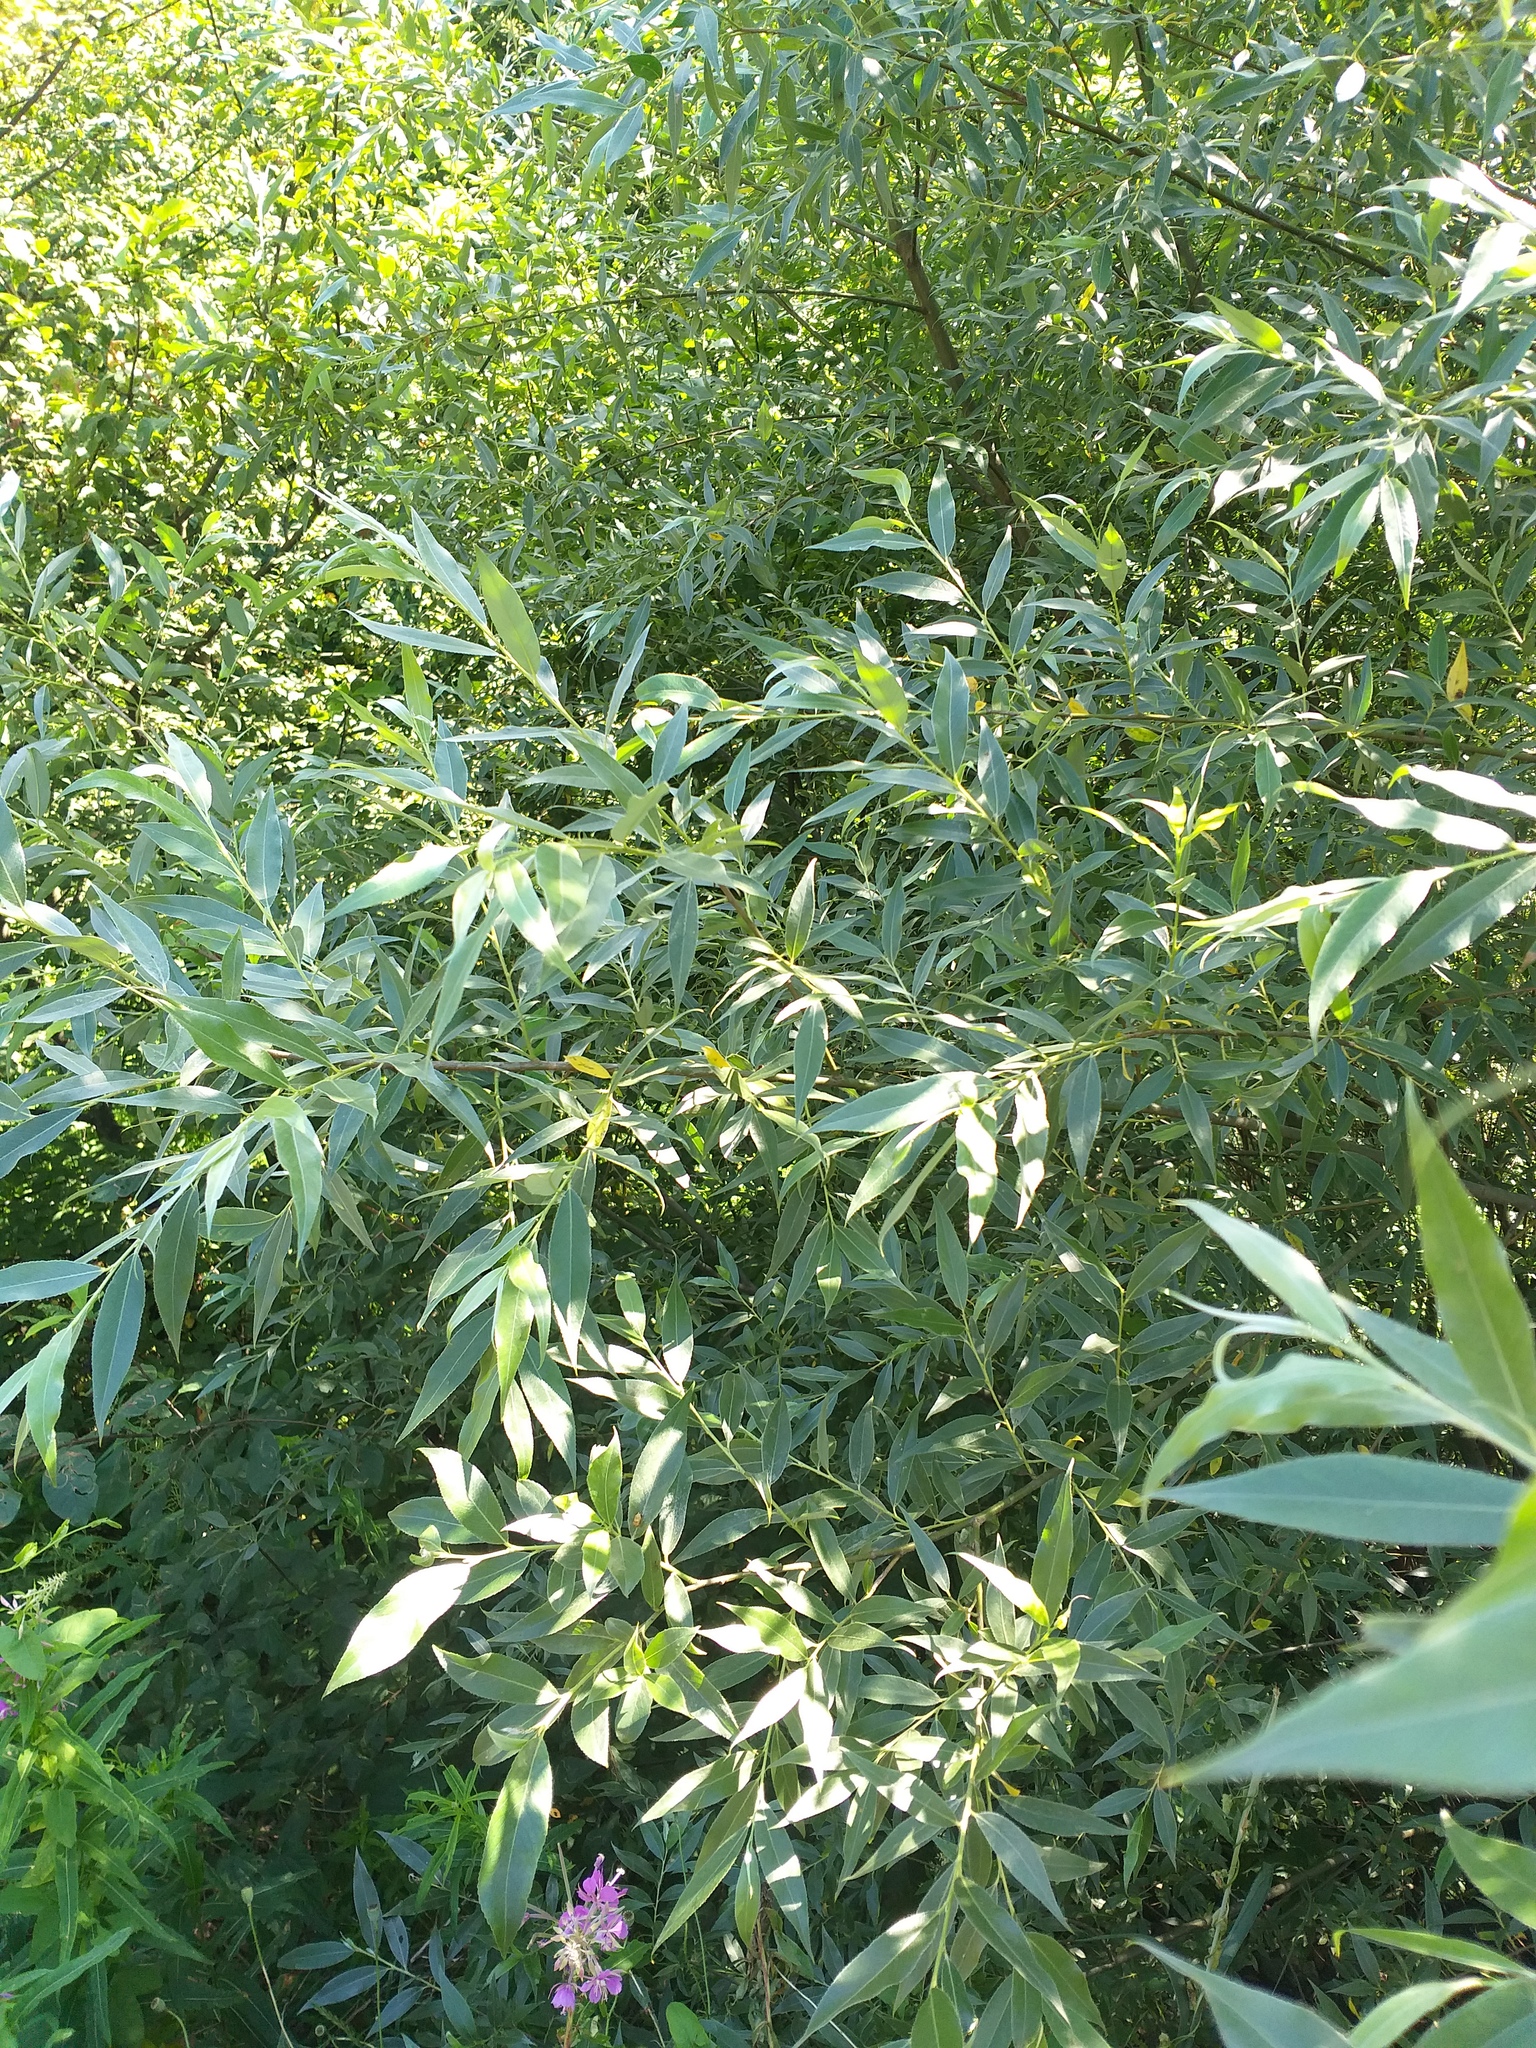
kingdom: Plantae
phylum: Tracheophyta
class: Magnoliopsida
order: Malpighiales
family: Salicaceae
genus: Salix
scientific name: Salix alba
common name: White willow
